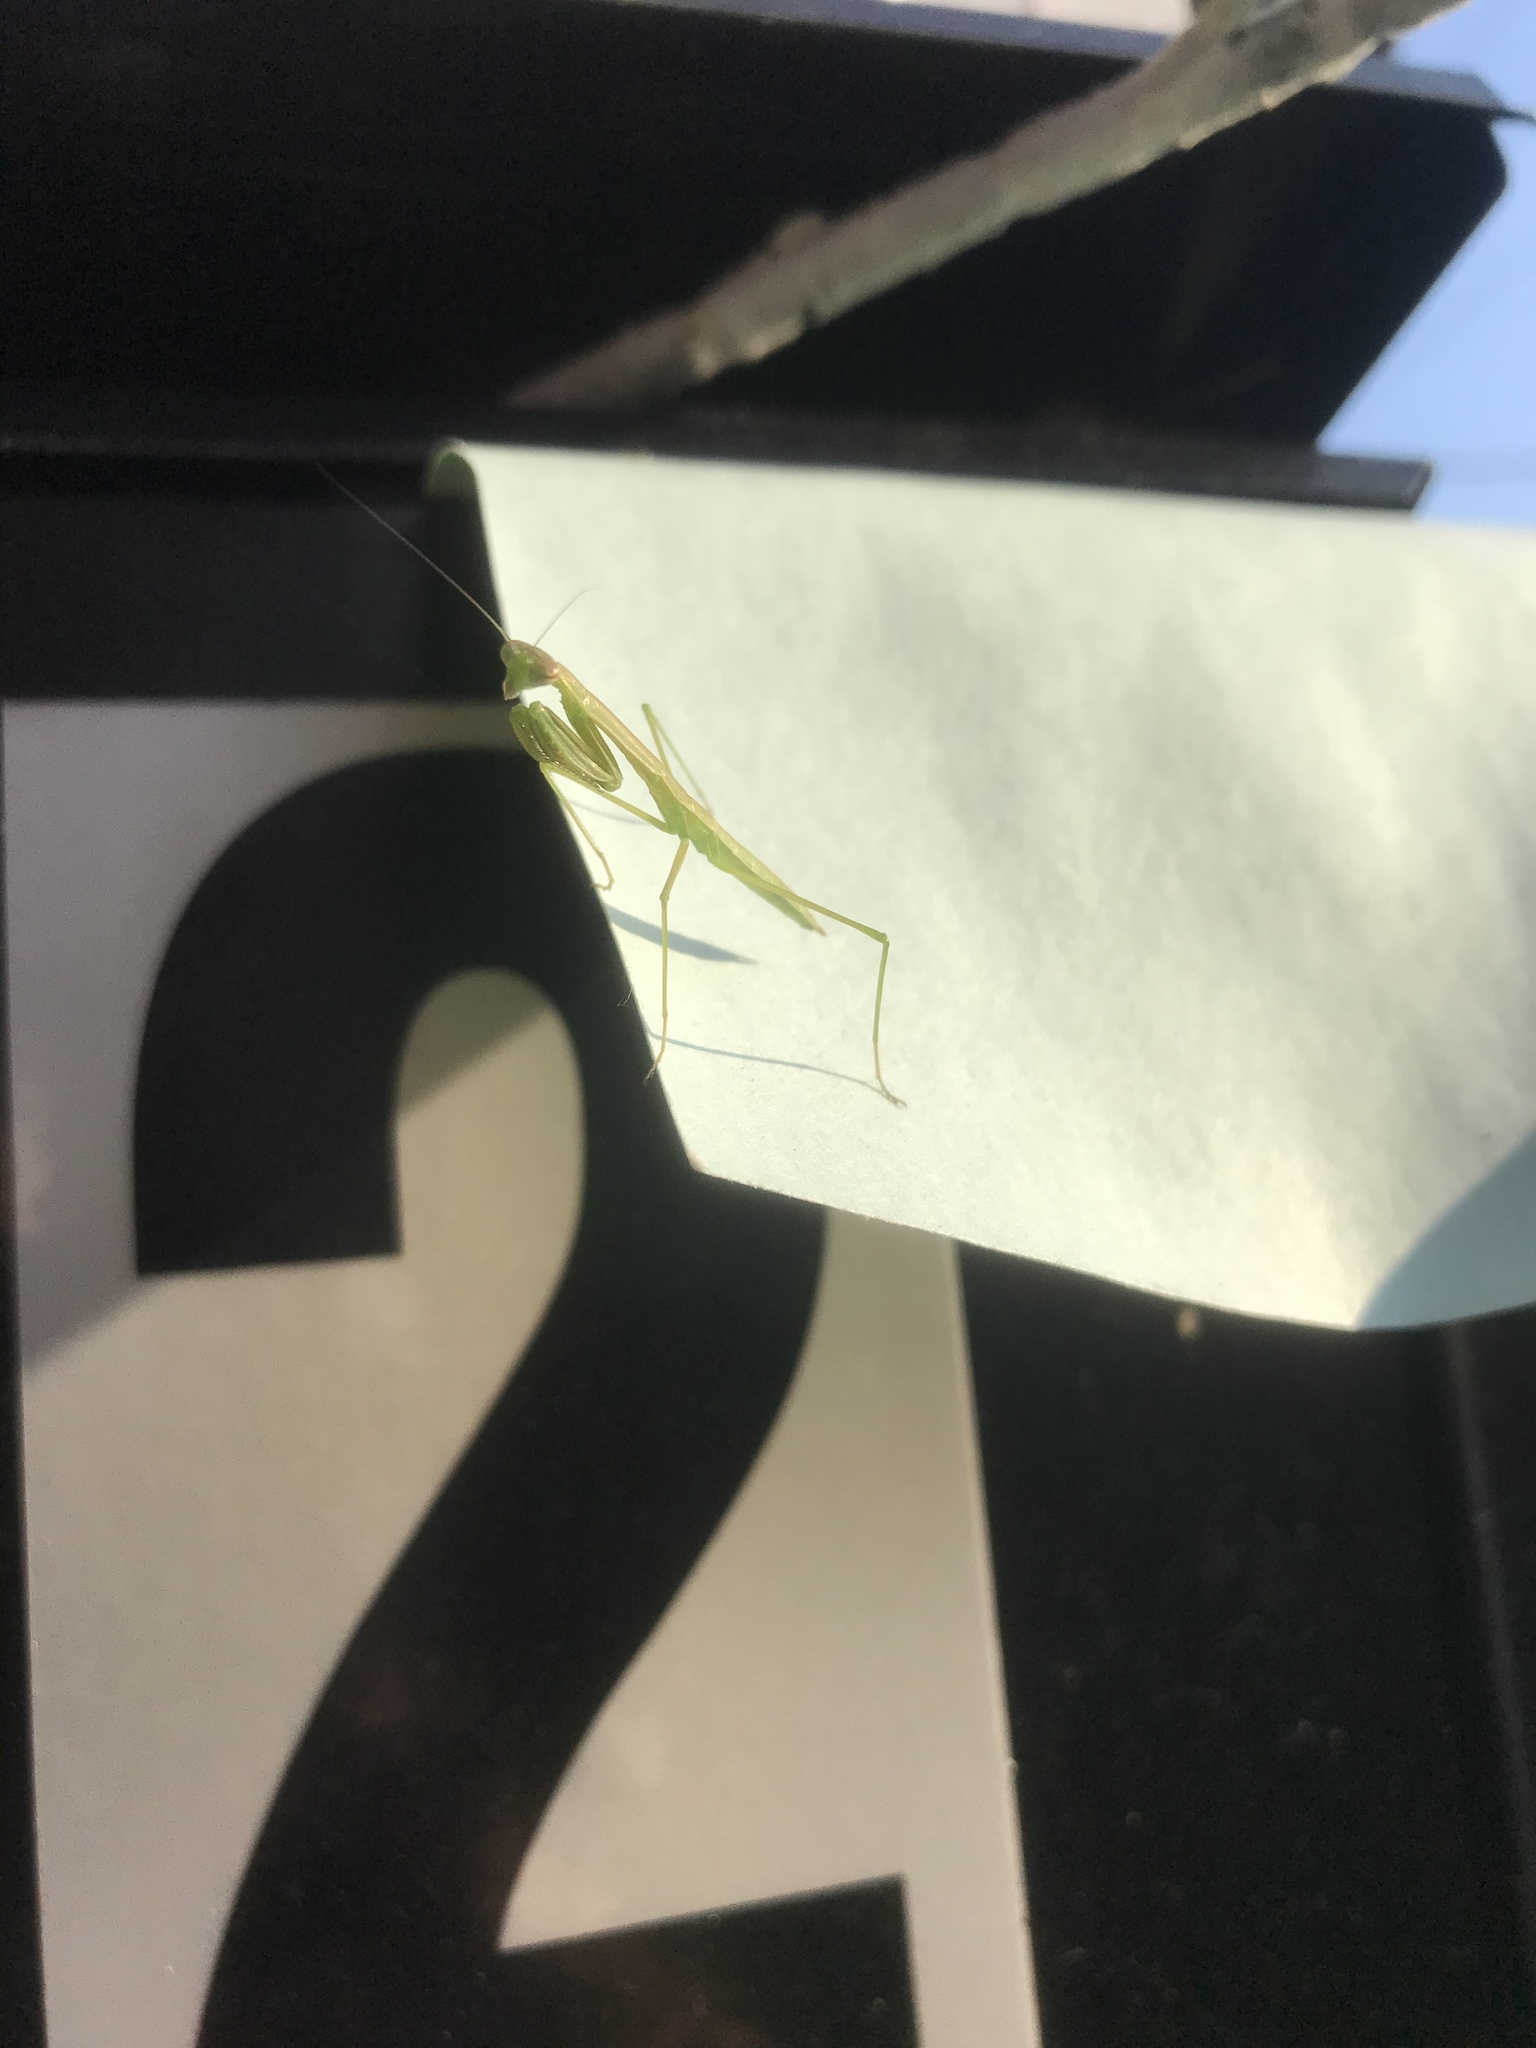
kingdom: Animalia
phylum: Arthropoda
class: Insecta
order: Mantodea
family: Mantidae
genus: Tenodera
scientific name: Tenodera sinensis
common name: Chinese mantis
